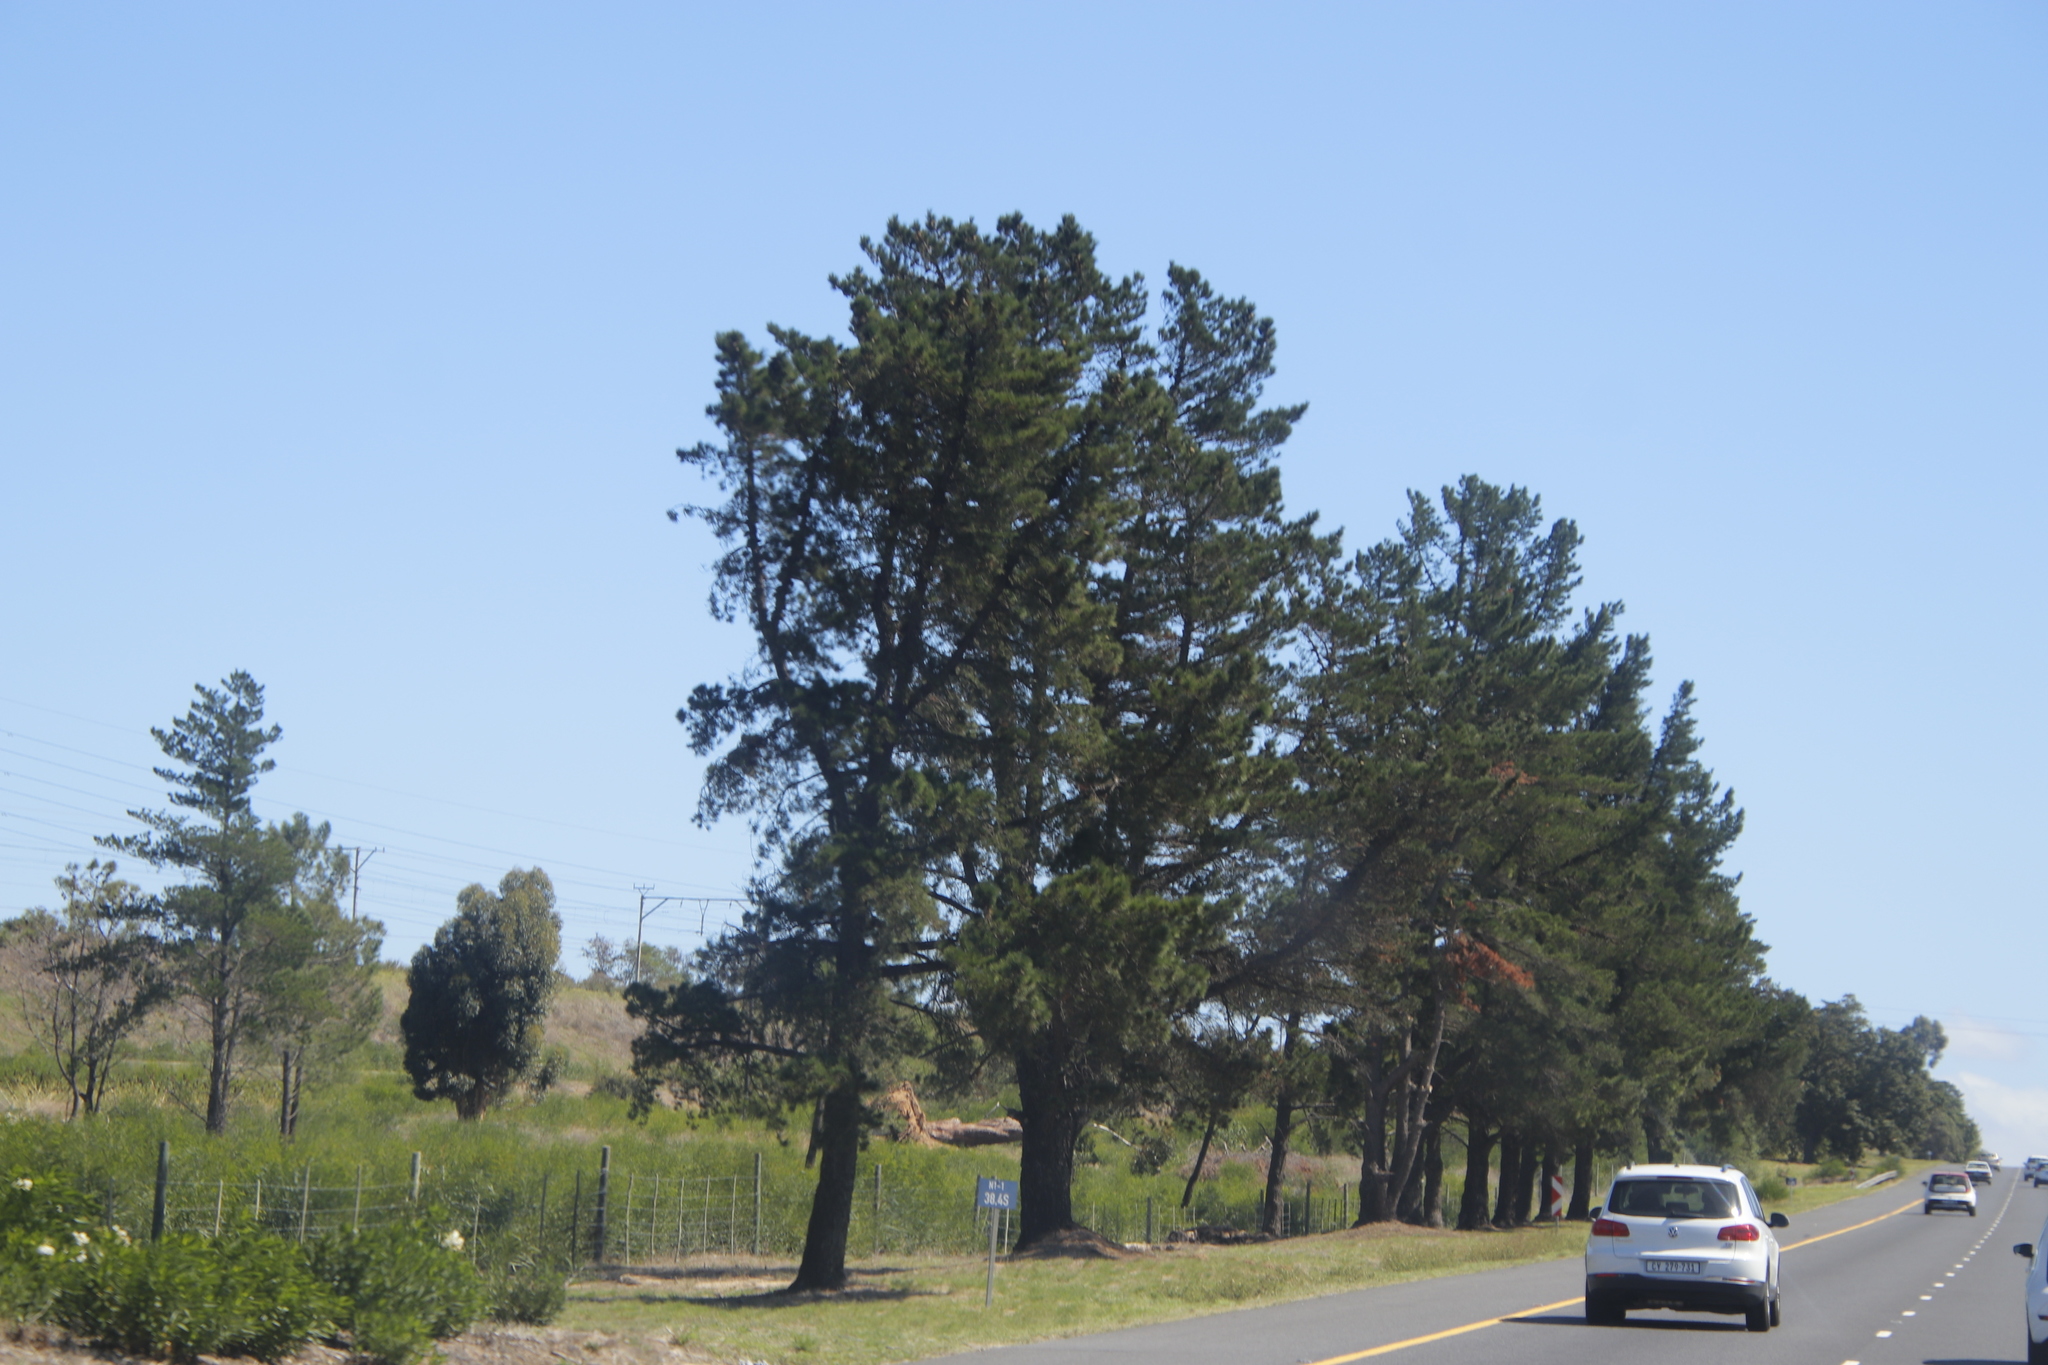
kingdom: Plantae
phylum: Tracheophyta
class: Pinopsida
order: Pinales
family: Pinaceae
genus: Pinus
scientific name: Pinus radiata
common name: Monterey pine
